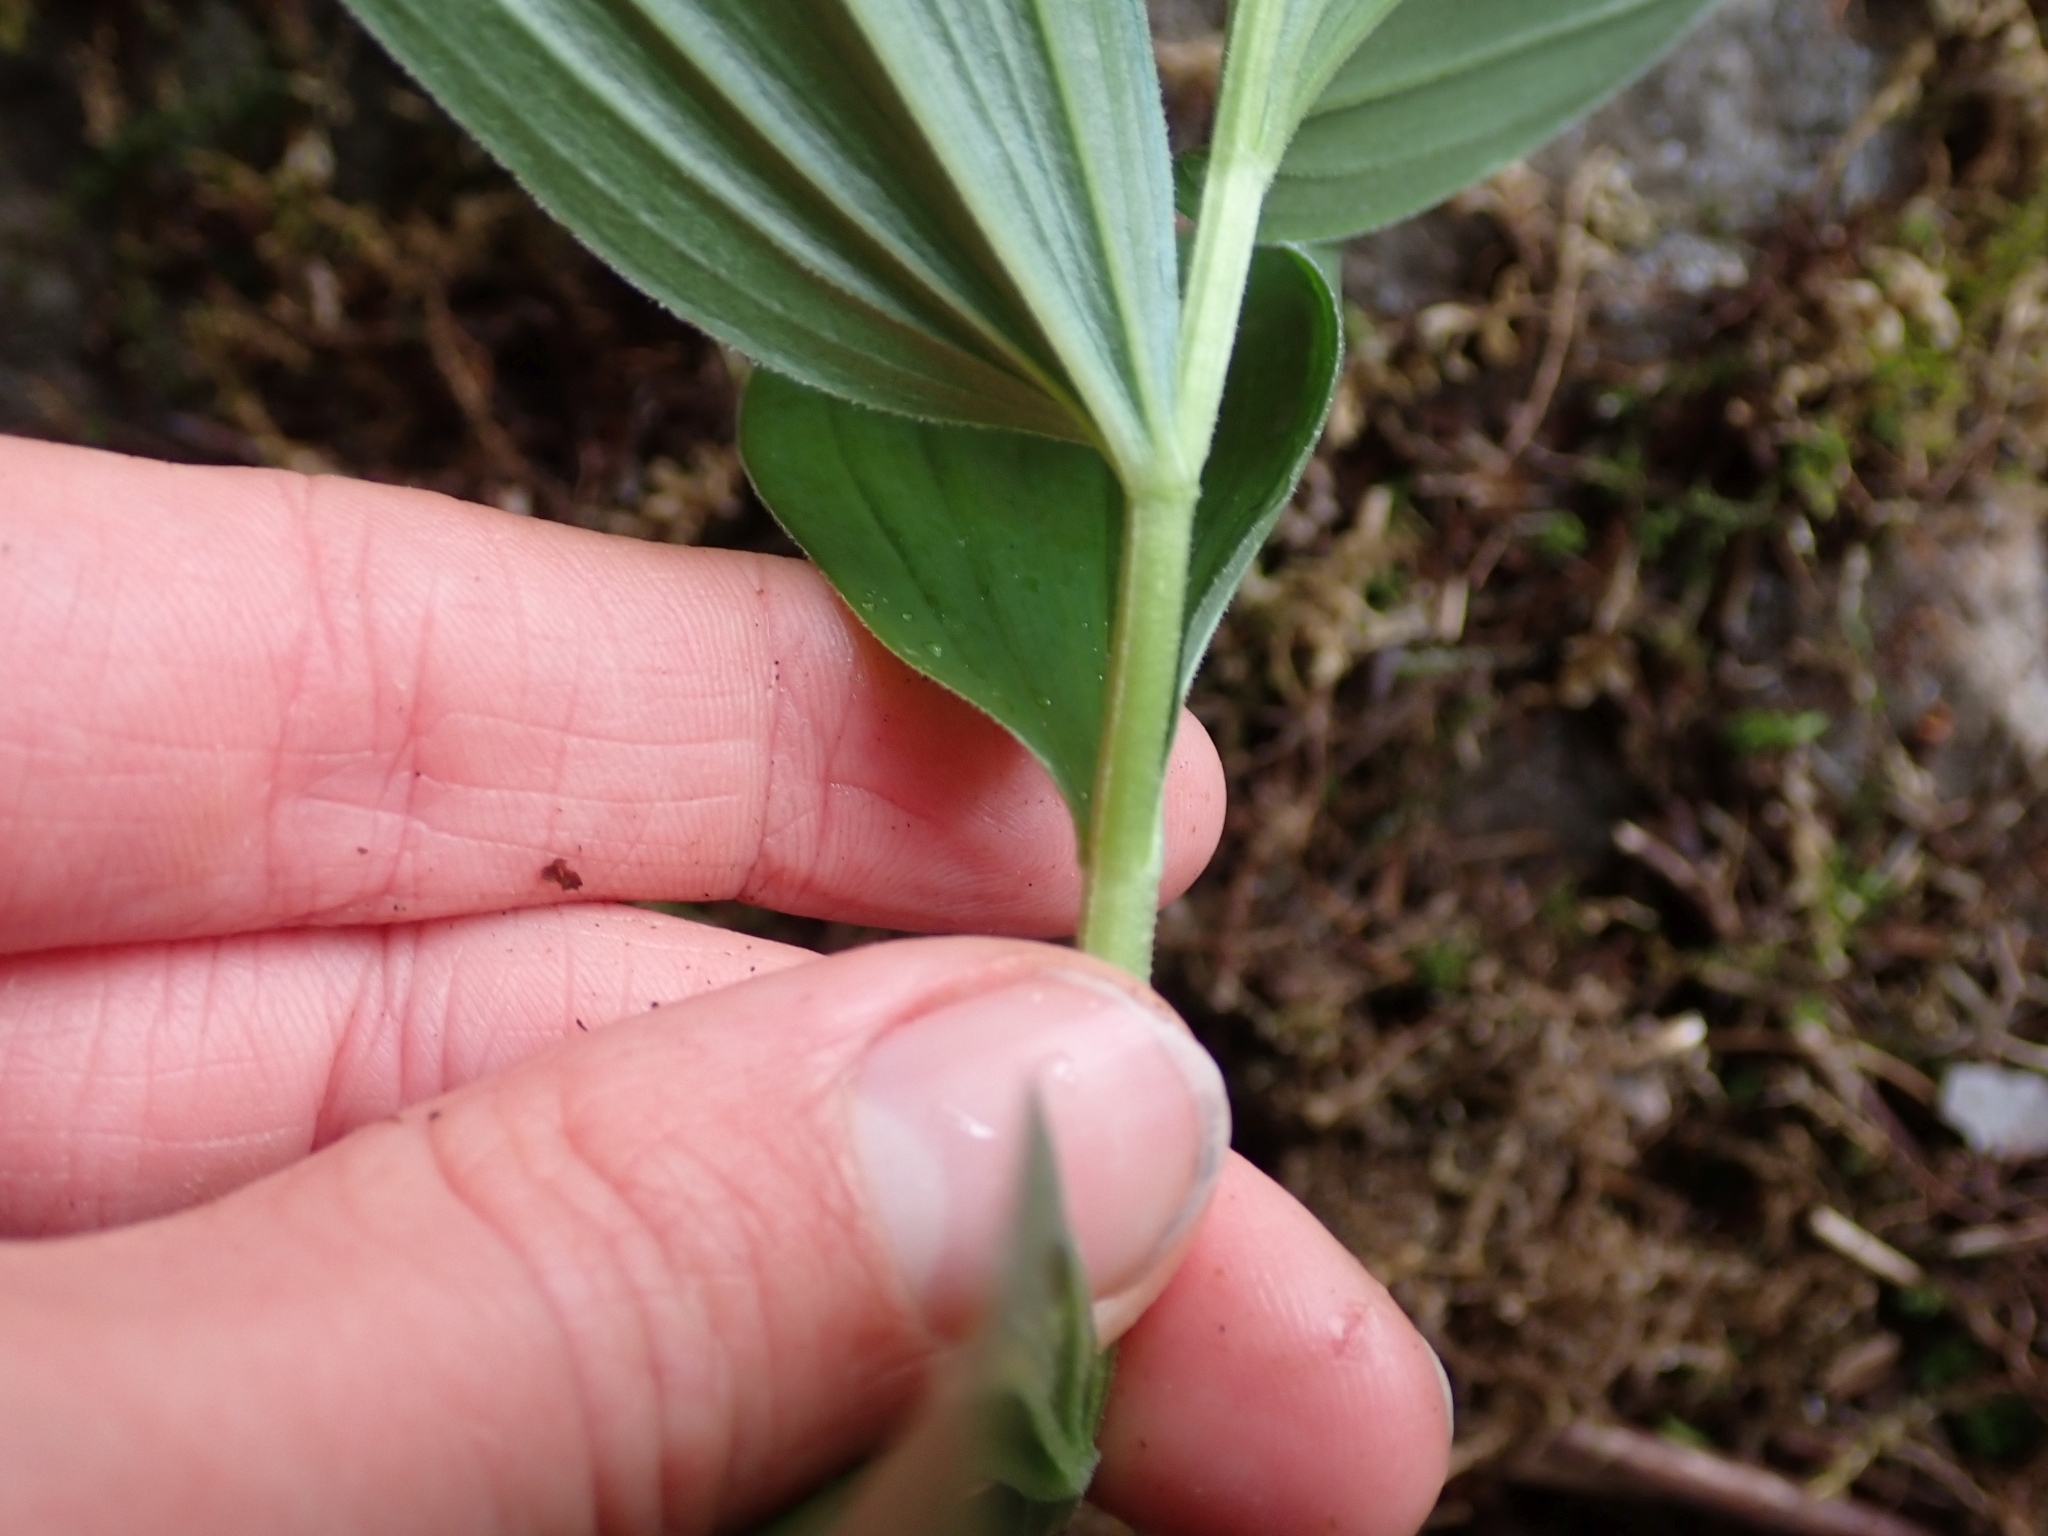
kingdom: Plantae
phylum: Tracheophyta
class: Liliopsida
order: Asparagales
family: Asparagaceae
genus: Maianthemum
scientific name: Maianthemum racemosum
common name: False spikenard
